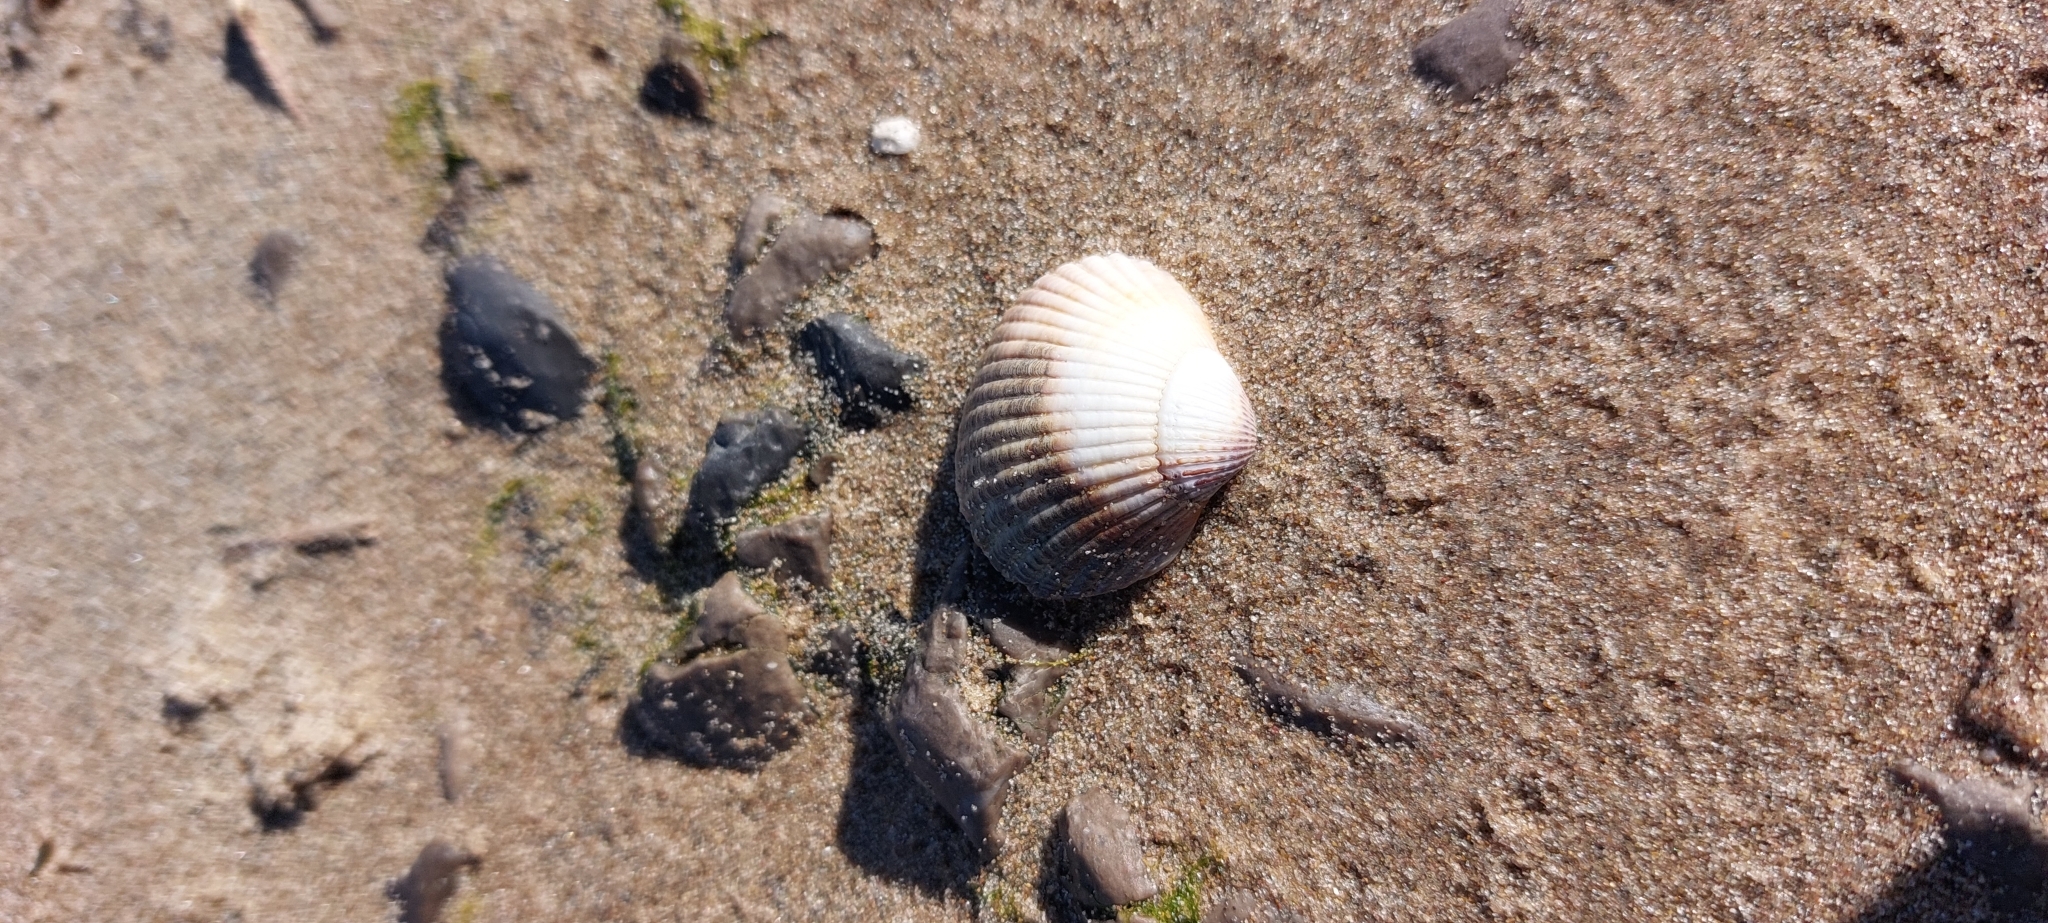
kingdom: Animalia
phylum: Mollusca
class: Bivalvia
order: Cardiida
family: Cardiidae
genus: Cerastoderma
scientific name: Cerastoderma edule
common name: Common cockle
